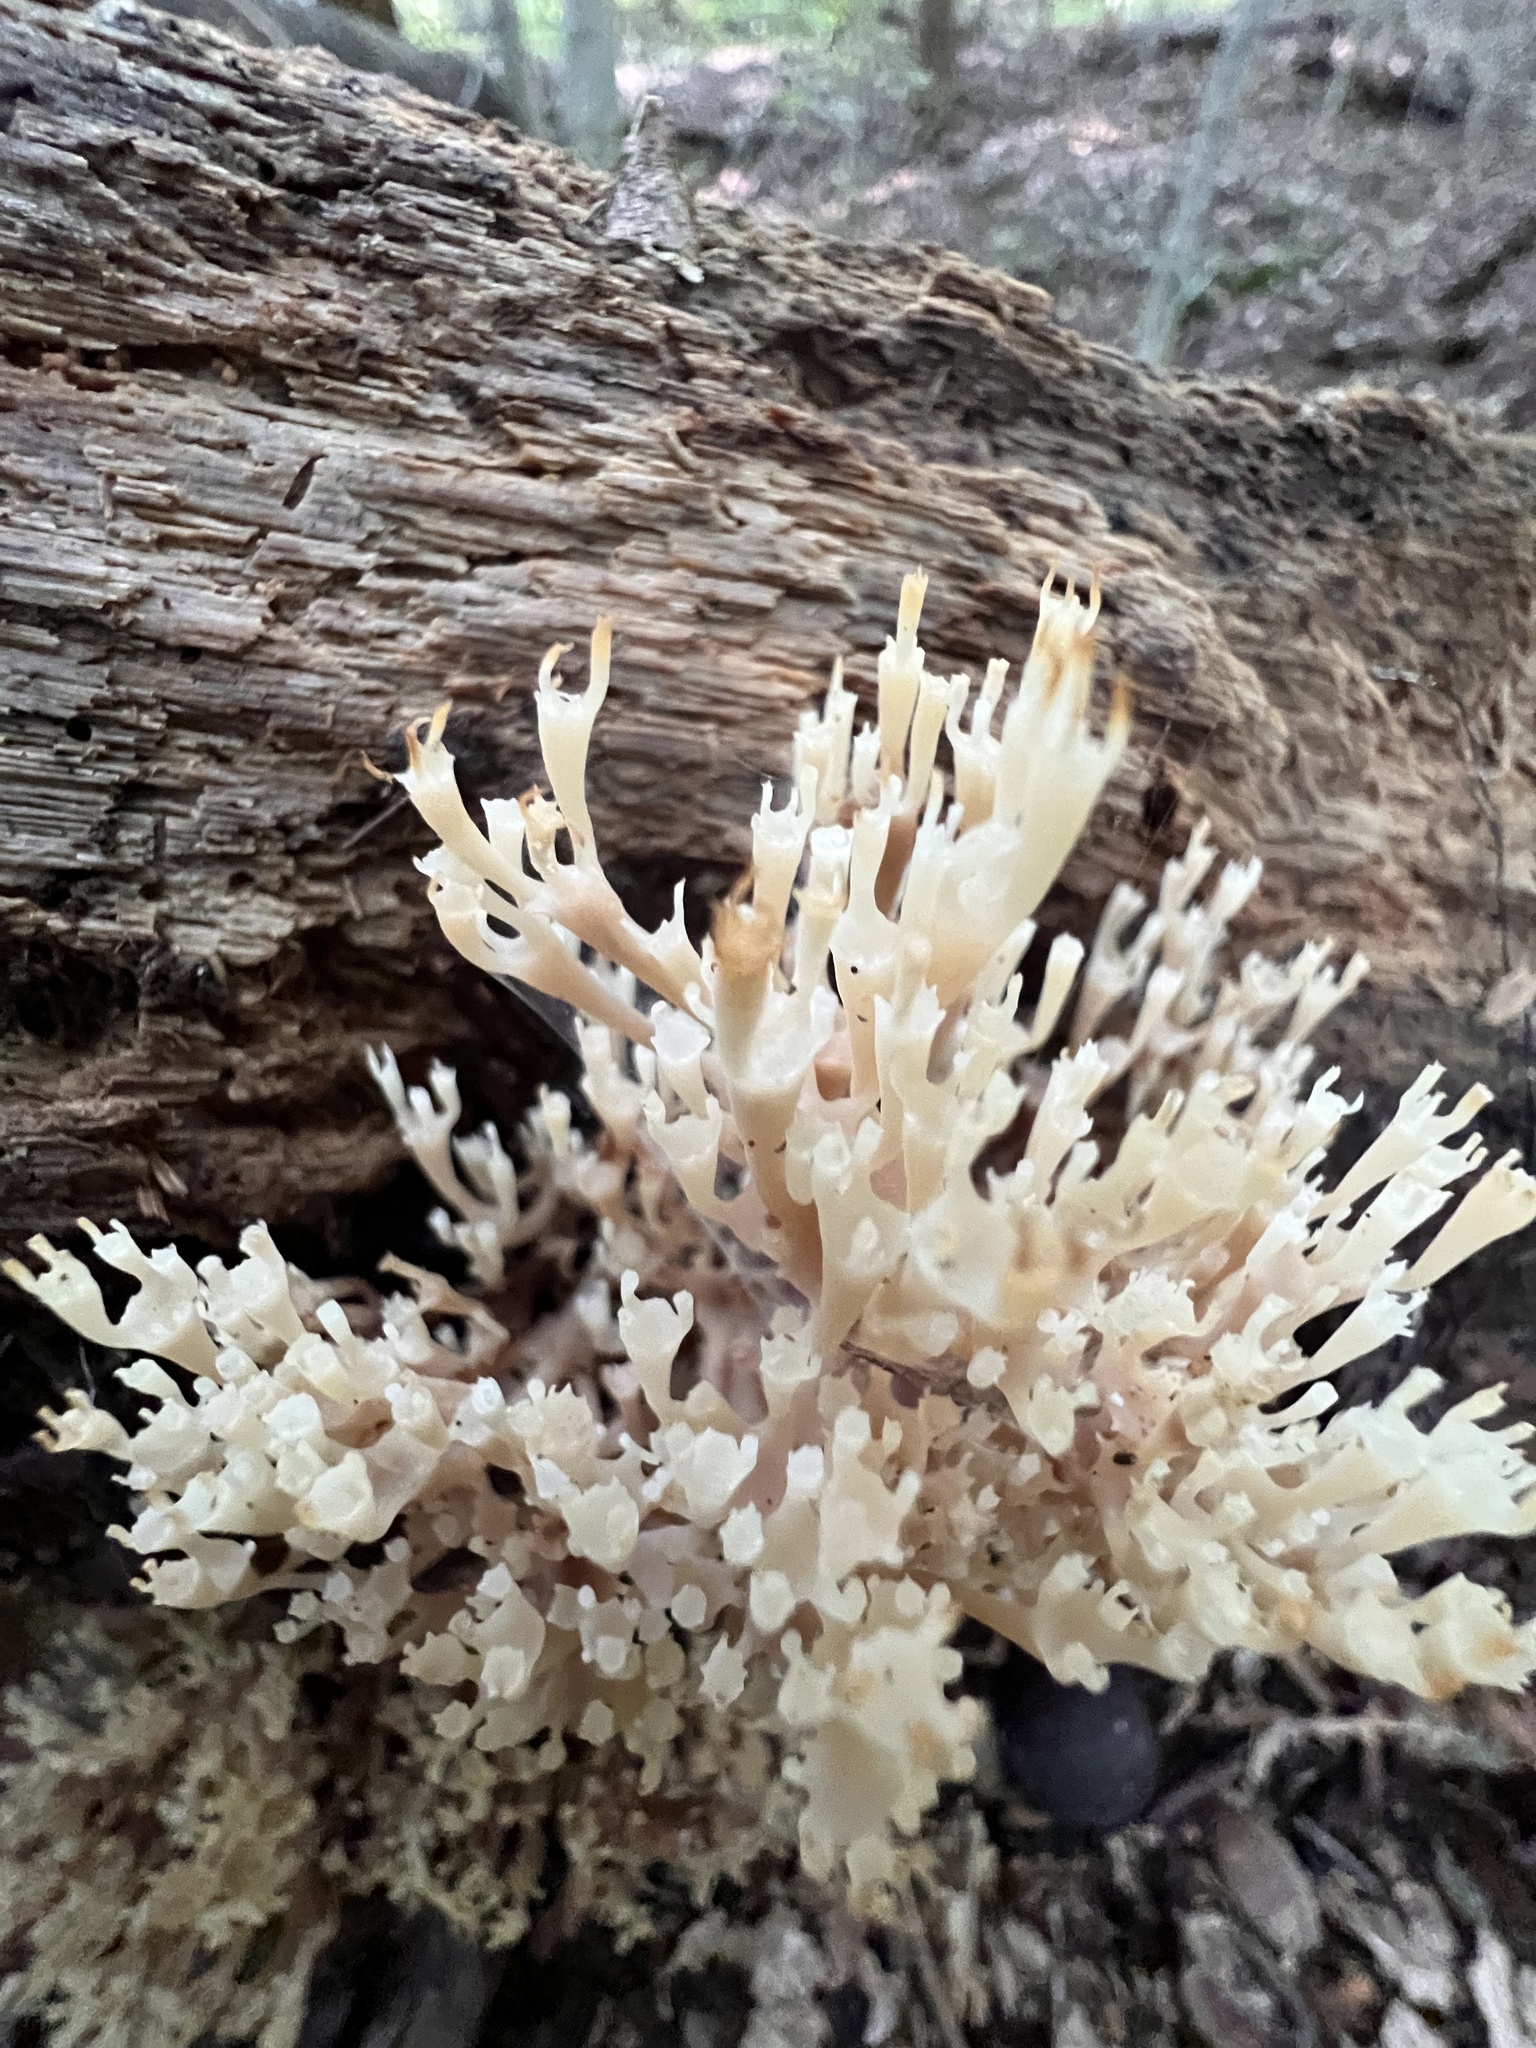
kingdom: Fungi
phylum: Basidiomycota
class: Agaricomycetes
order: Russulales
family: Auriscalpiaceae
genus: Artomyces
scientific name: Artomyces pyxidatus
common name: Crown-tipped coral fungus
